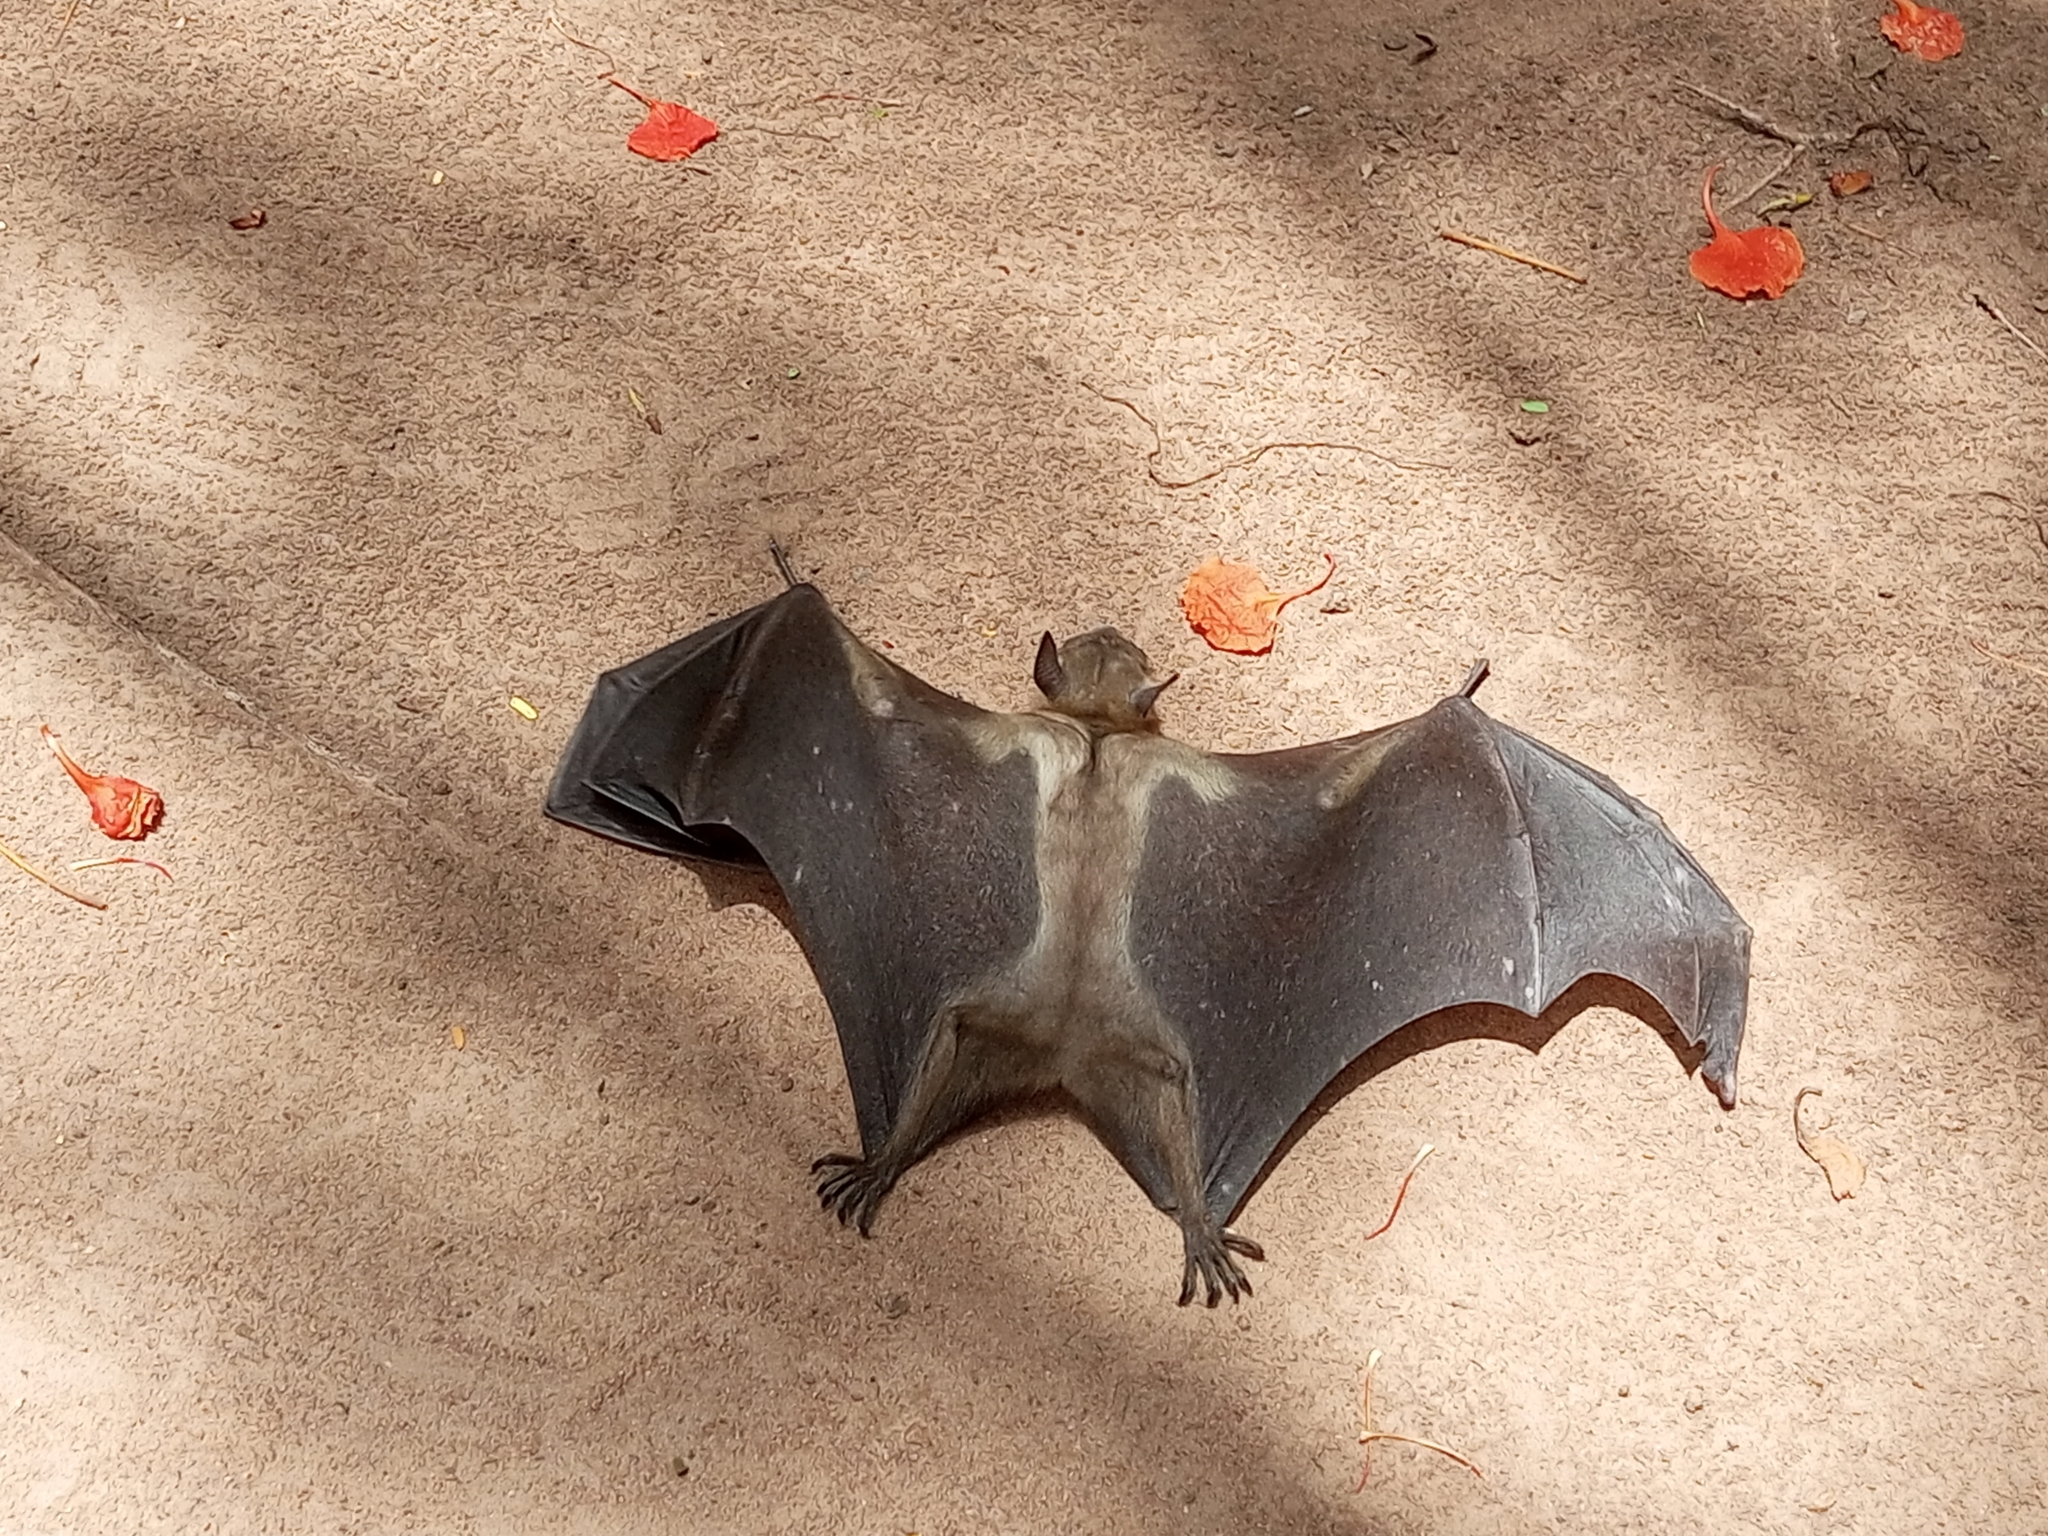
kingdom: Animalia
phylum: Chordata
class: Mammalia
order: Chiroptera
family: Pteropodidae
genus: Eidolon
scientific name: Eidolon helvum
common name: Straw-colored fruit bat
